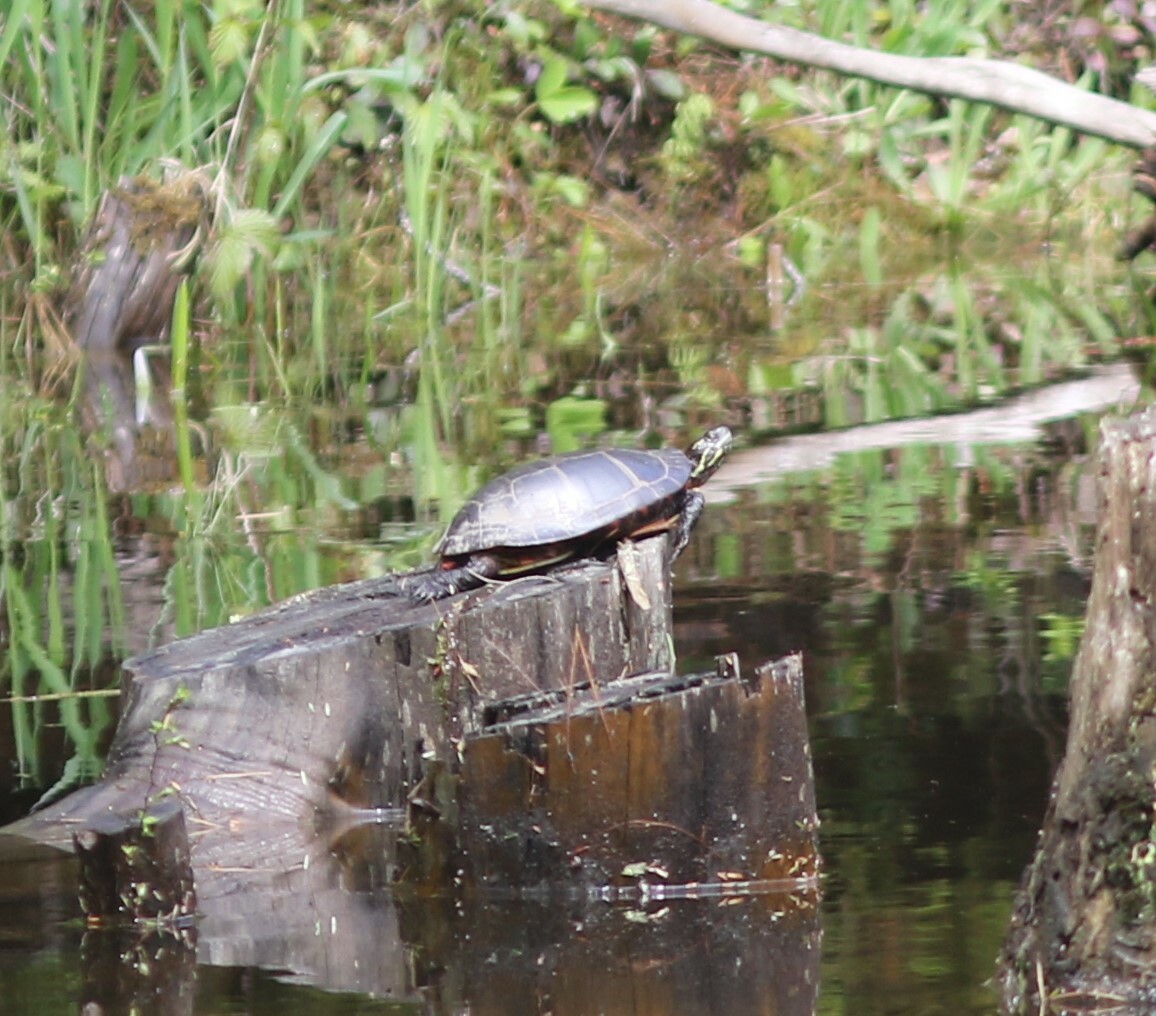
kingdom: Animalia
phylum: Chordata
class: Testudines
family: Emydidae
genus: Chrysemys
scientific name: Chrysemys picta
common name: Painted turtle
